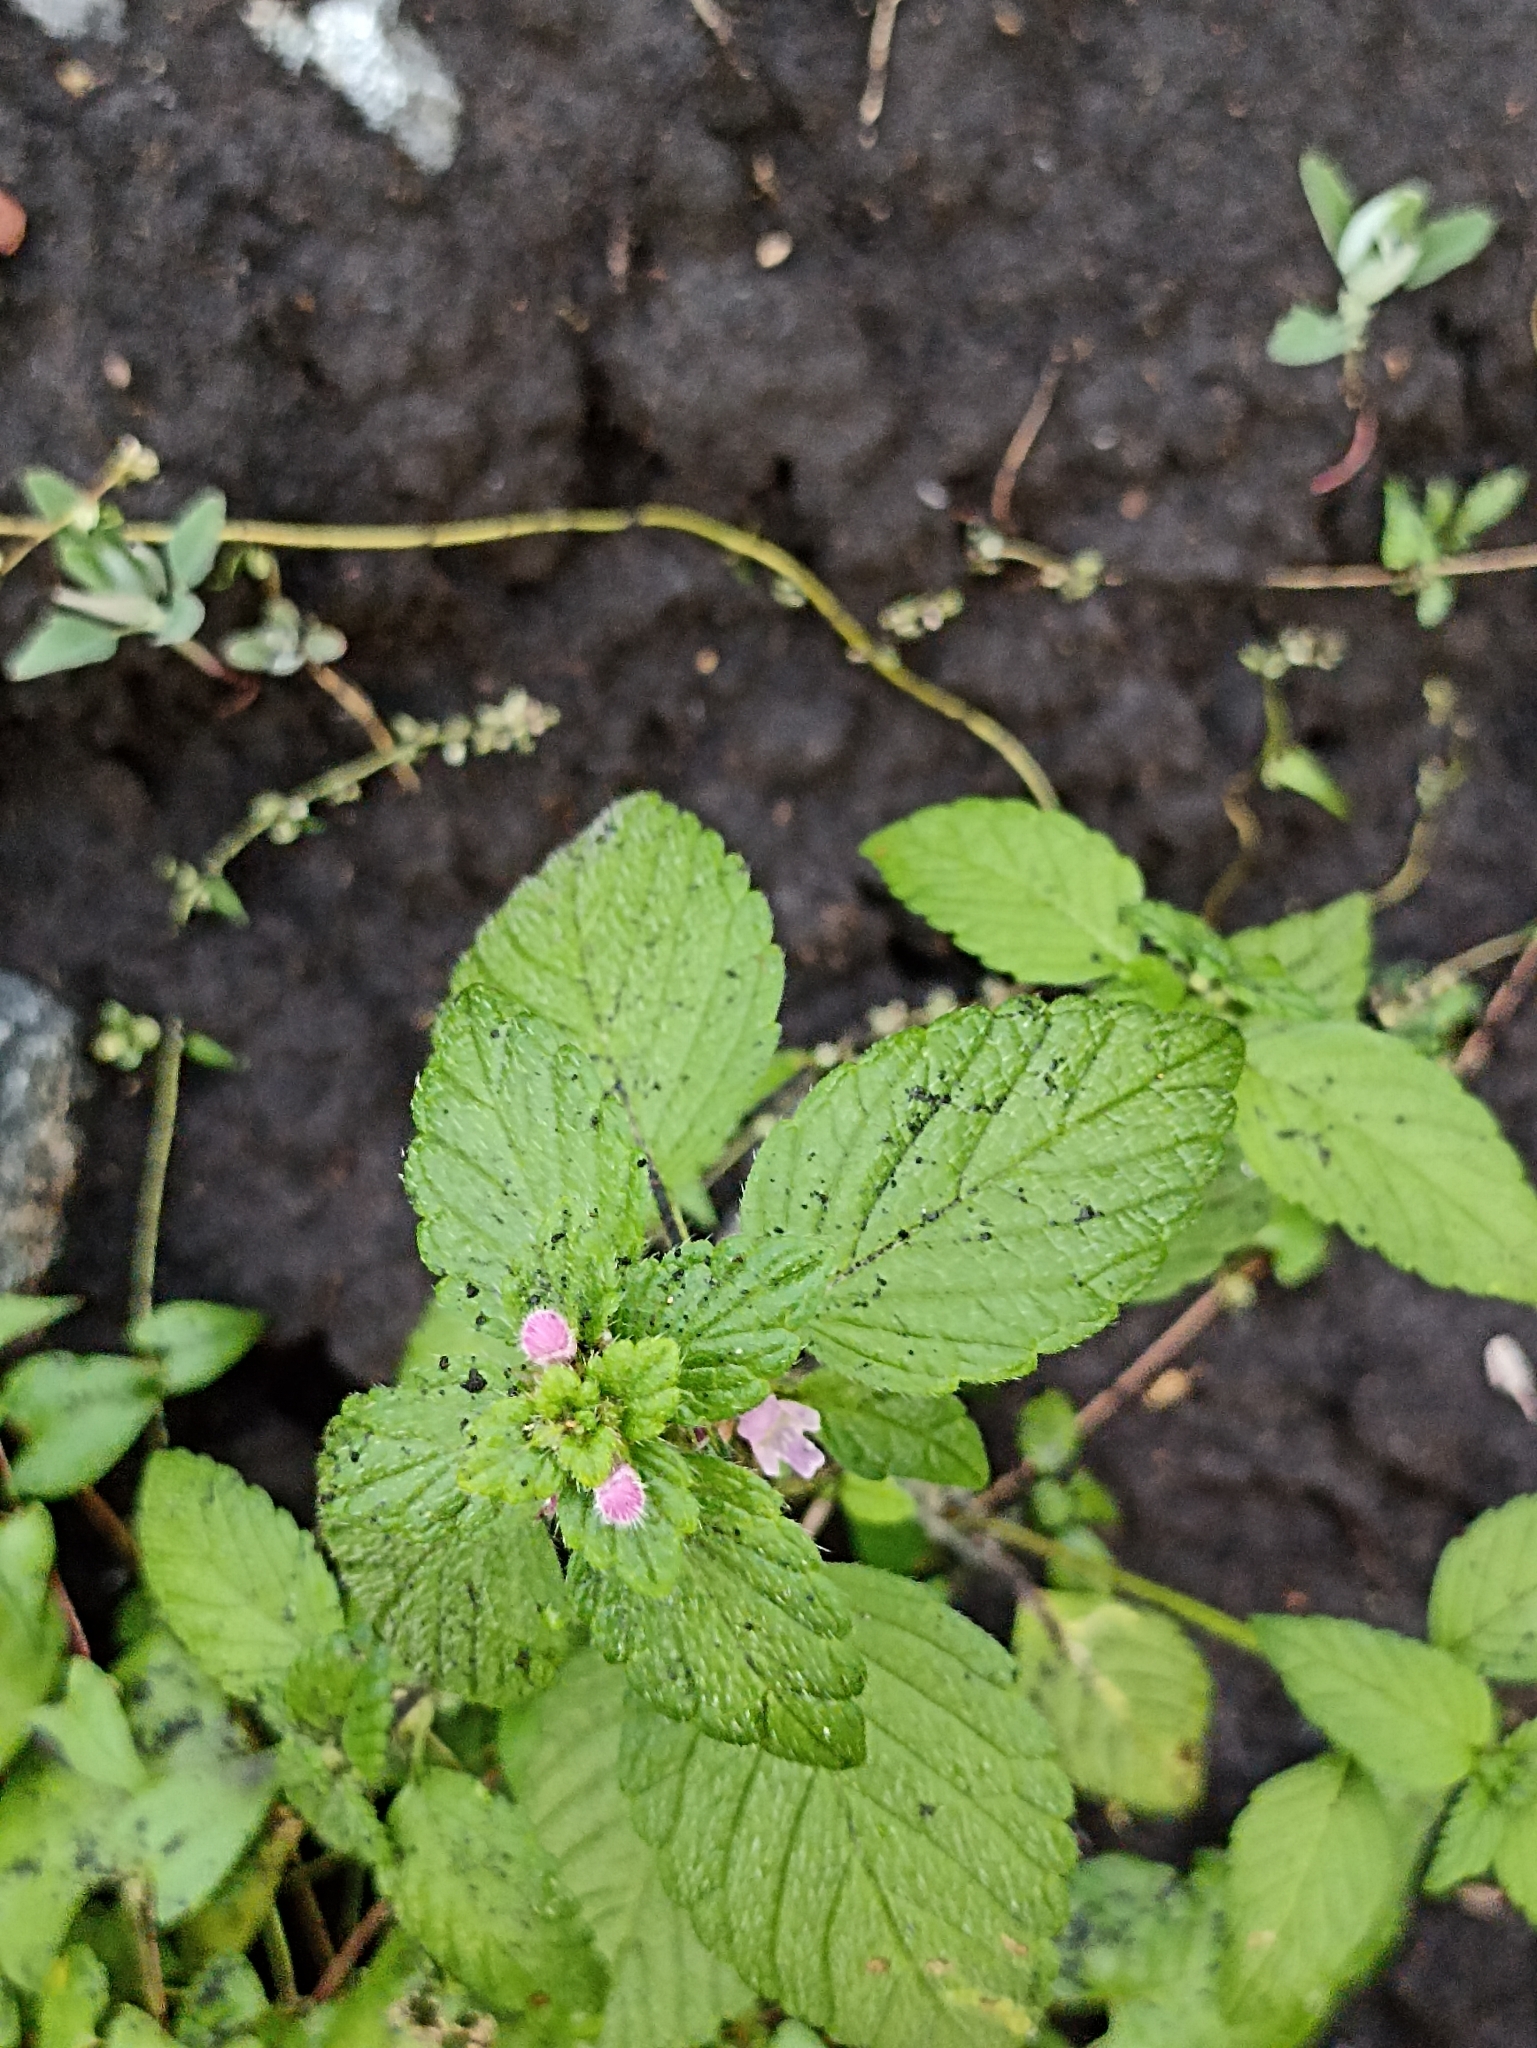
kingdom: Plantae
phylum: Tracheophyta
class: Magnoliopsida
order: Lamiales
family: Lamiaceae
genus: Galeopsis
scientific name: Galeopsis bifida
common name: Bifid hemp-nettle
